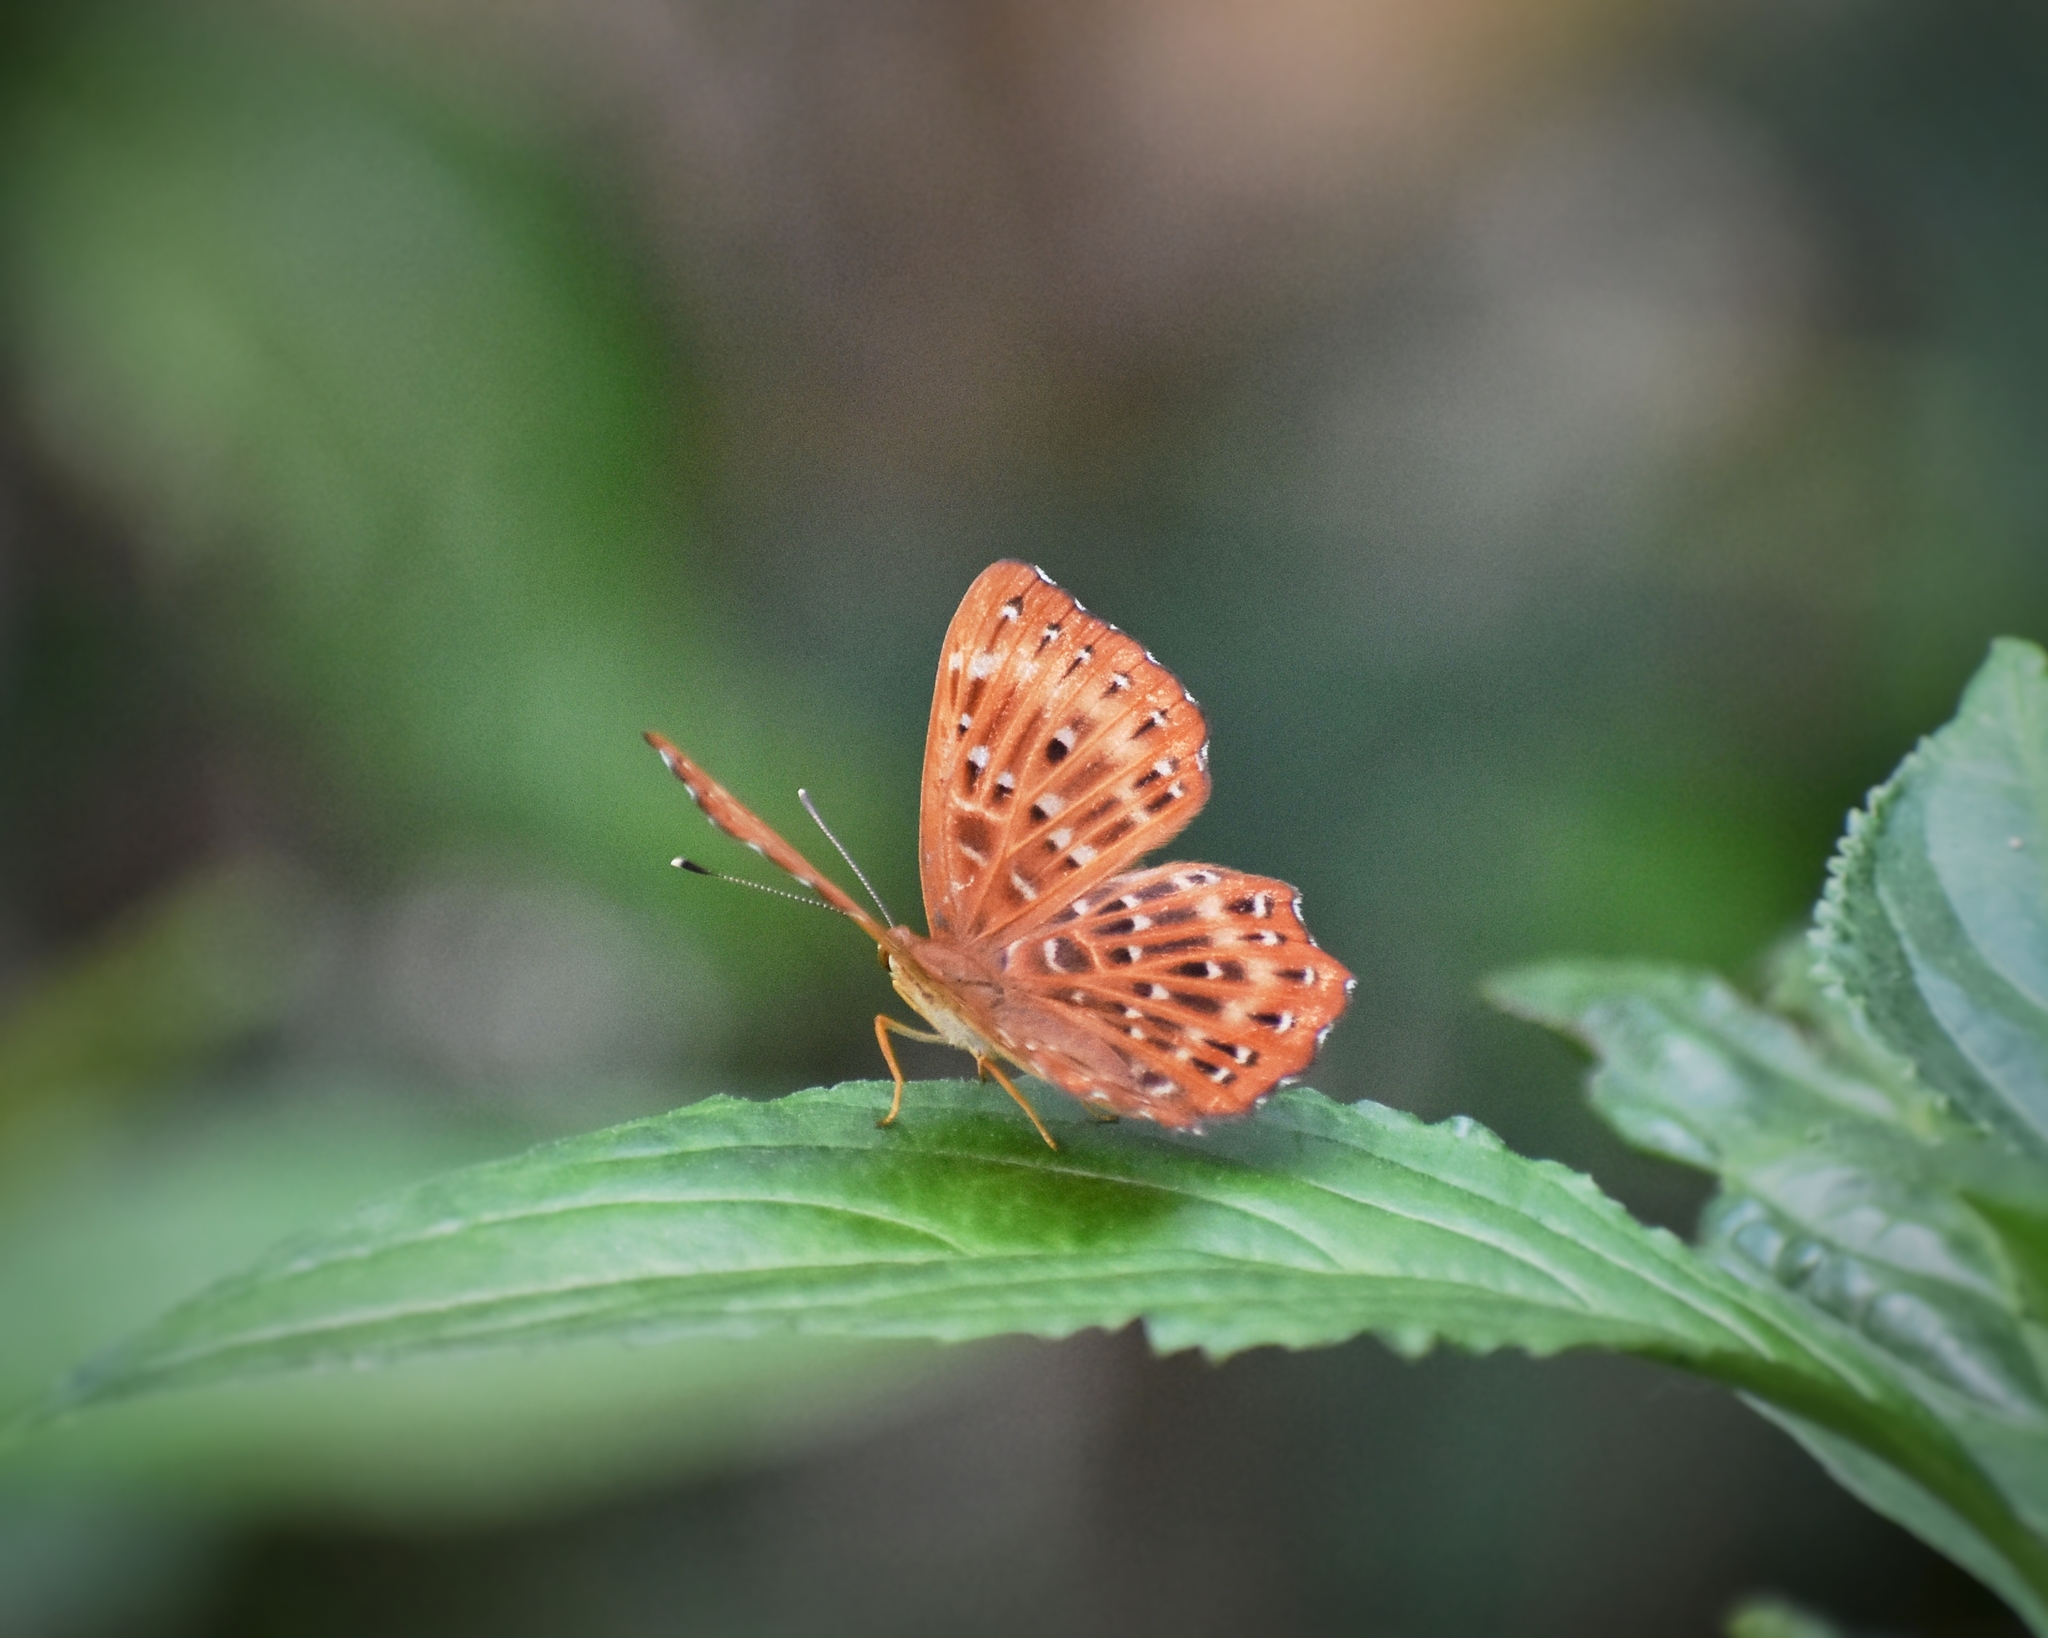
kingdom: Animalia
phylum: Arthropoda
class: Insecta
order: Lepidoptera
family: Riodinidae
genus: Zemeros
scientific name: Zemeros flegyas
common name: Punchinello
